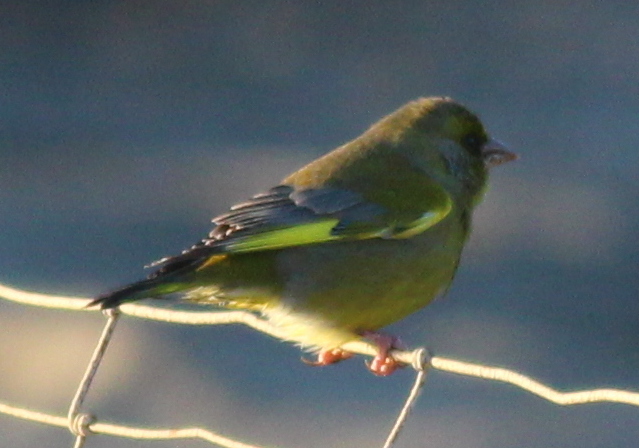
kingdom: Plantae
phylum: Tracheophyta
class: Liliopsida
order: Poales
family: Poaceae
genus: Chloris
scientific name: Chloris chloris
